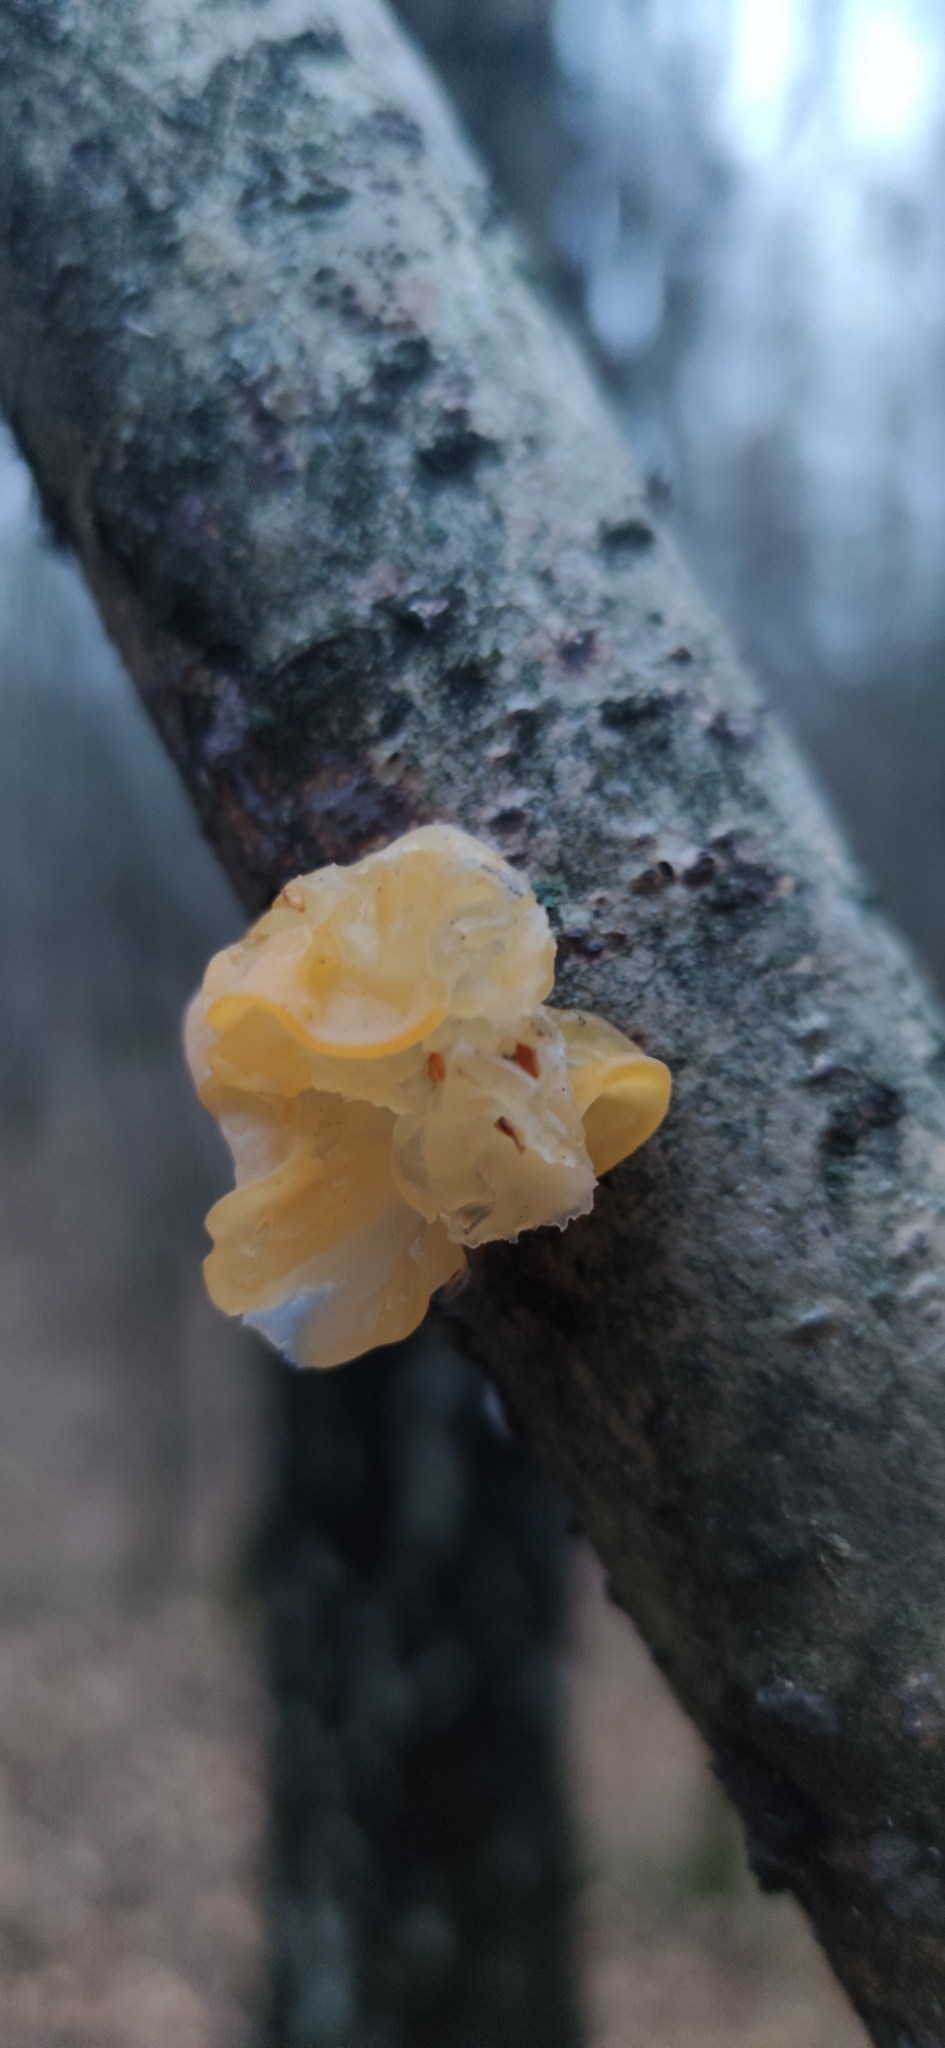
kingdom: Fungi
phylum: Basidiomycota
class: Tremellomycetes
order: Tremellales
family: Tremellaceae
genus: Tremella
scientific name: Tremella mesenterica
